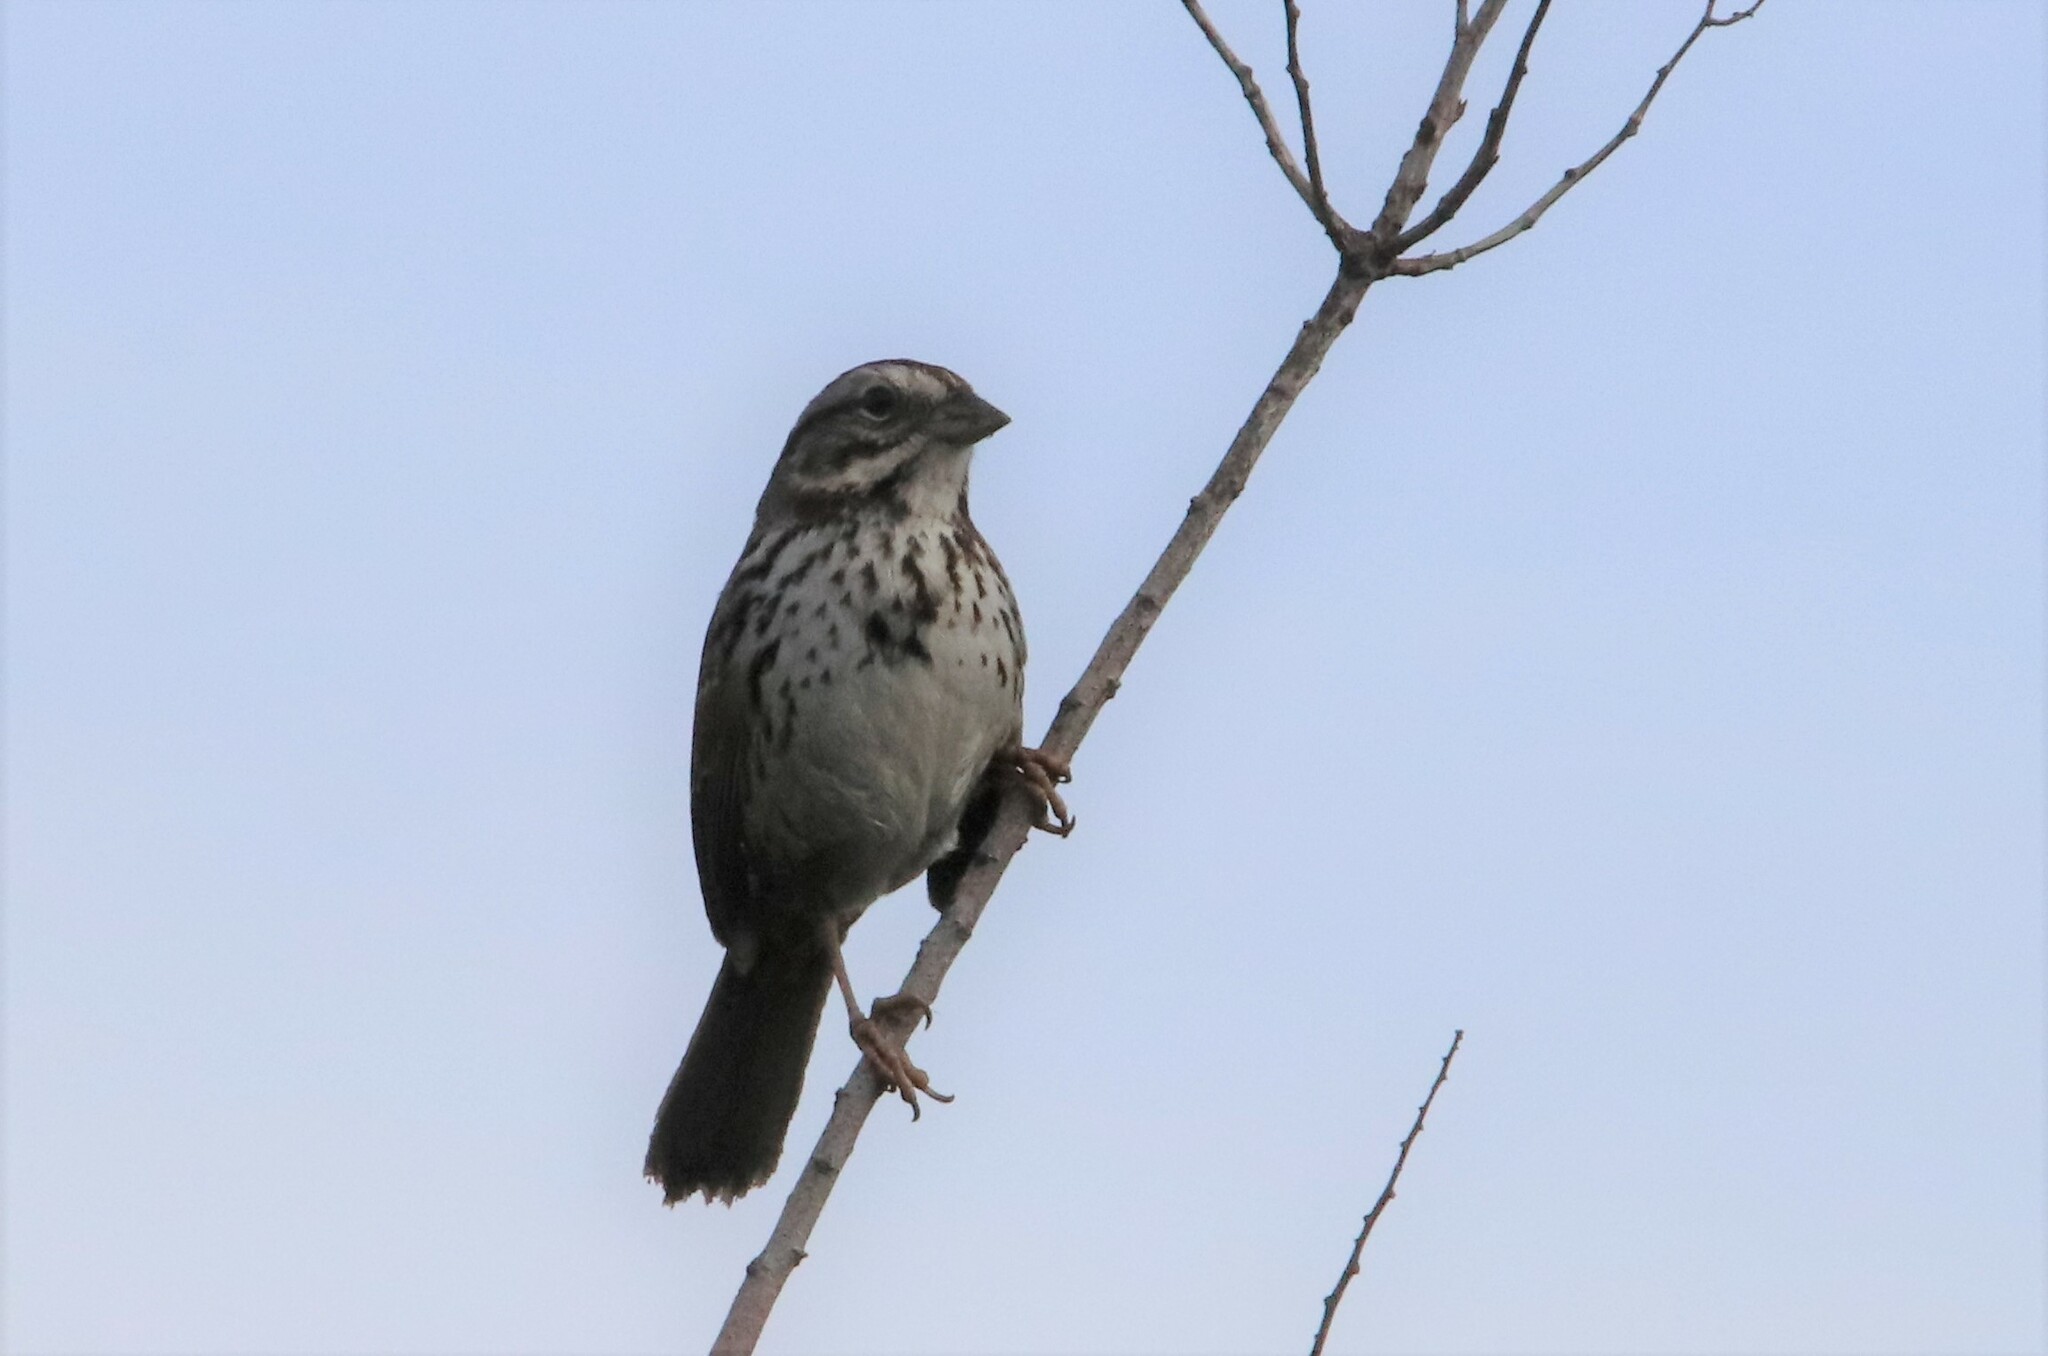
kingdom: Animalia
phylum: Chordata
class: Aves
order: Passeriformes
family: Passerellidae
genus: Melospiza
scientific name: Melospiza melodia
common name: Song sparrow
